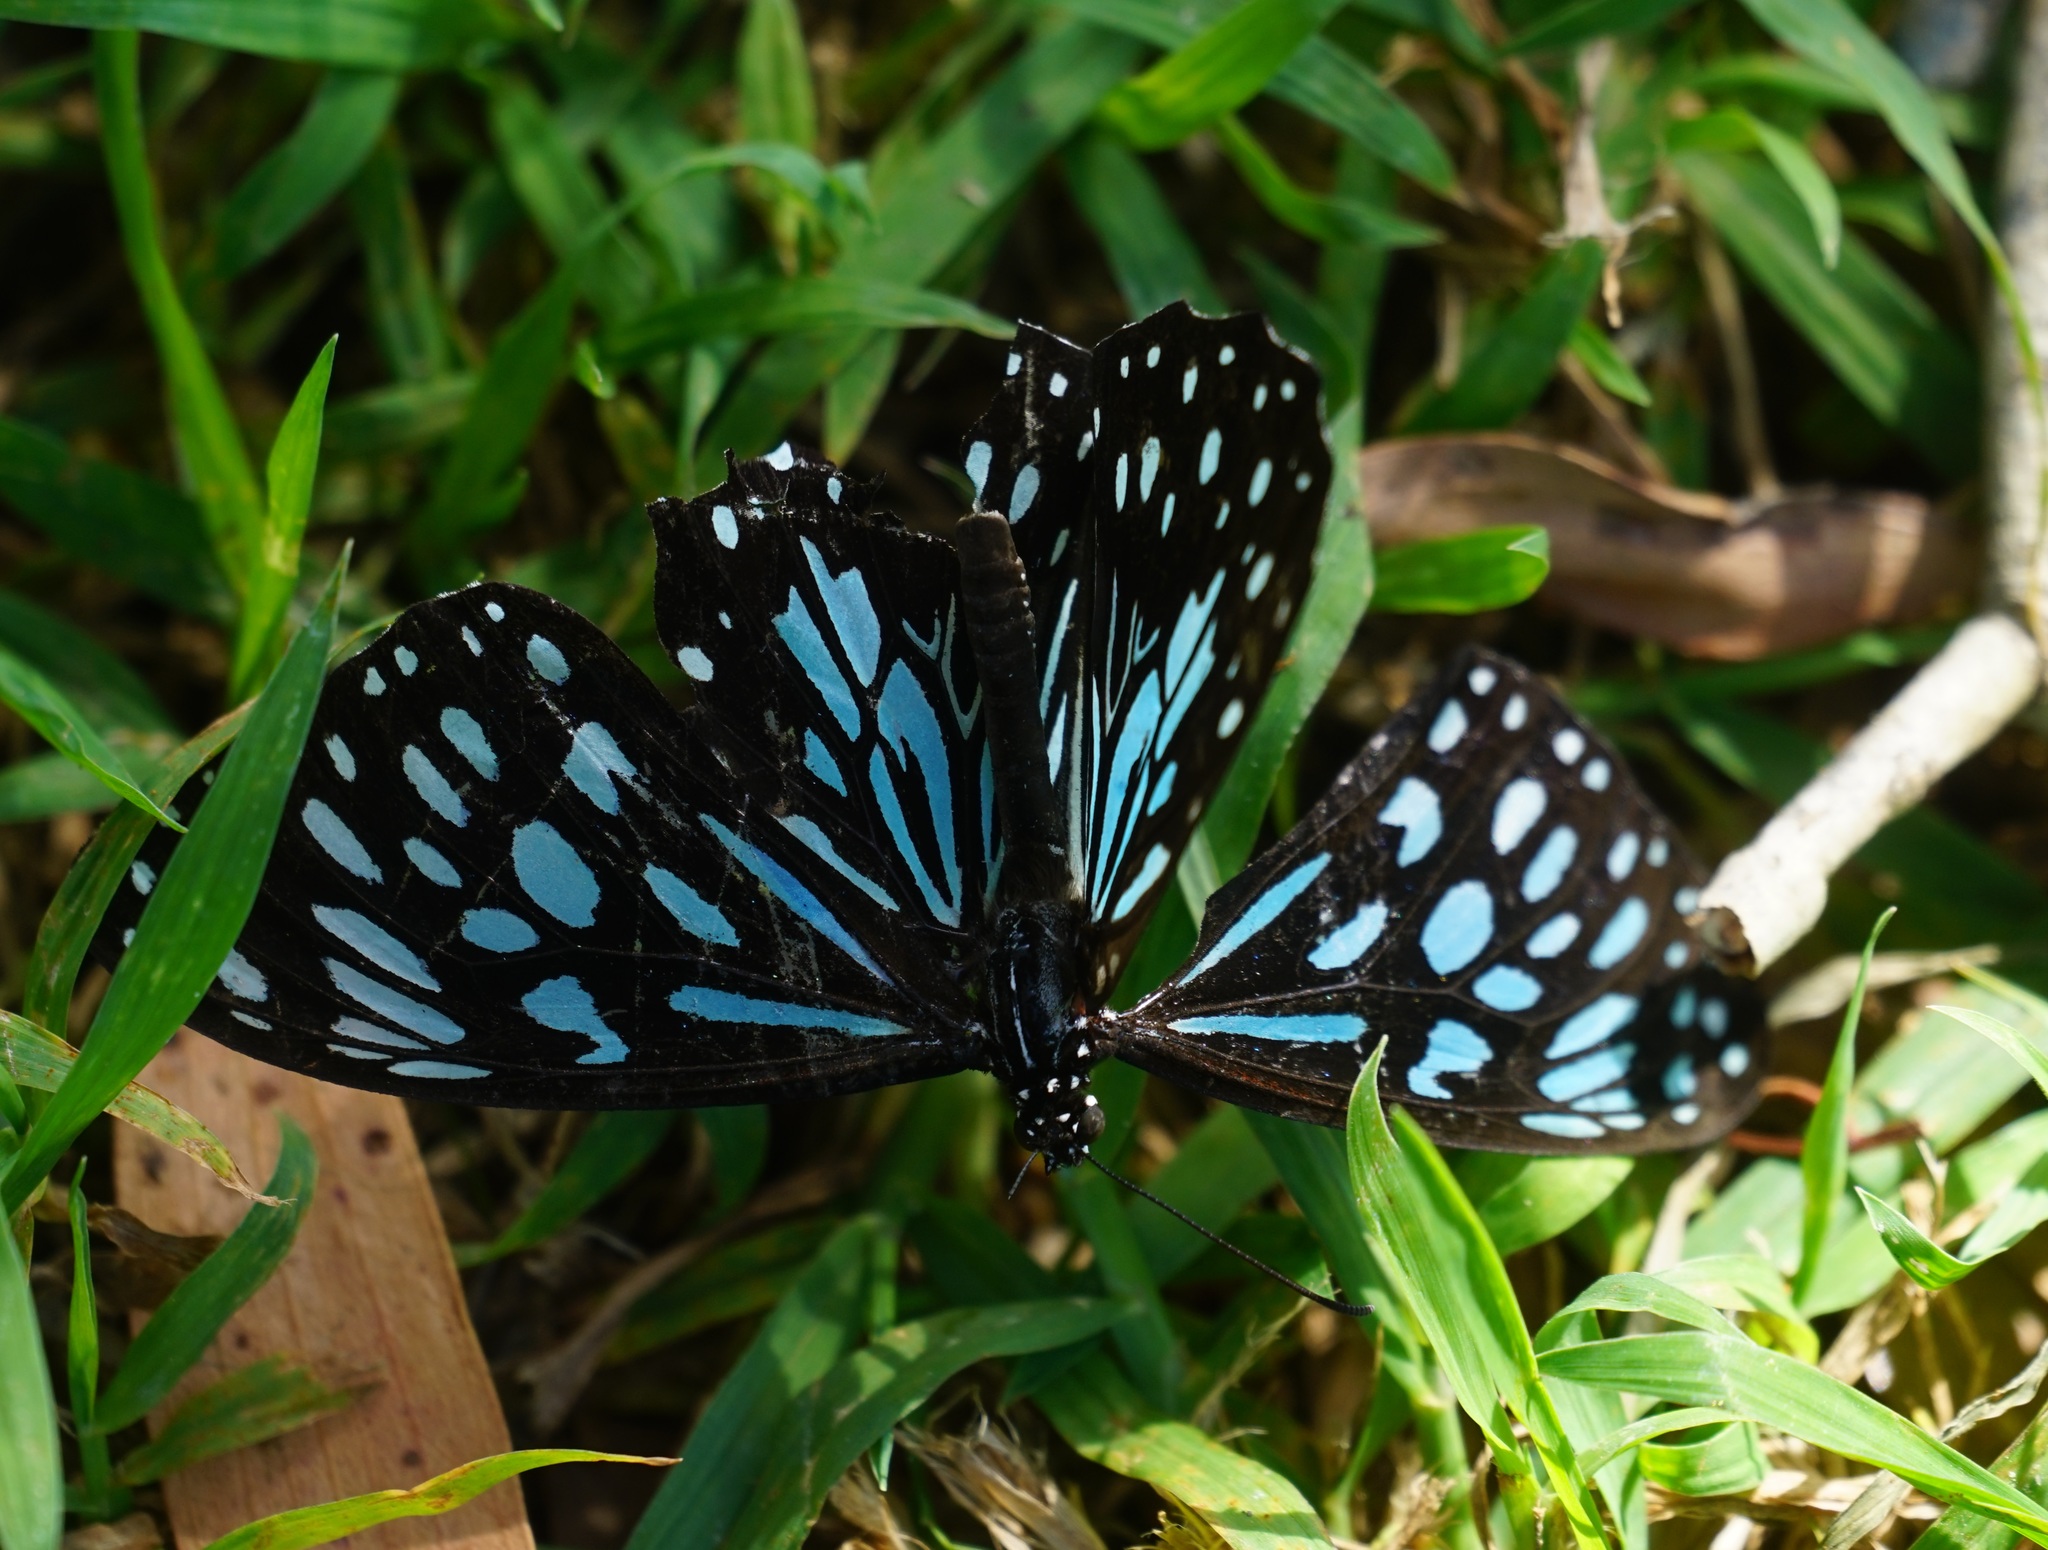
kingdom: Animalia
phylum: Arthropoda
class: Insecta
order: Lepidoptera
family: Nymphalidae
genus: Tirumala
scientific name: Tirumala hamata
